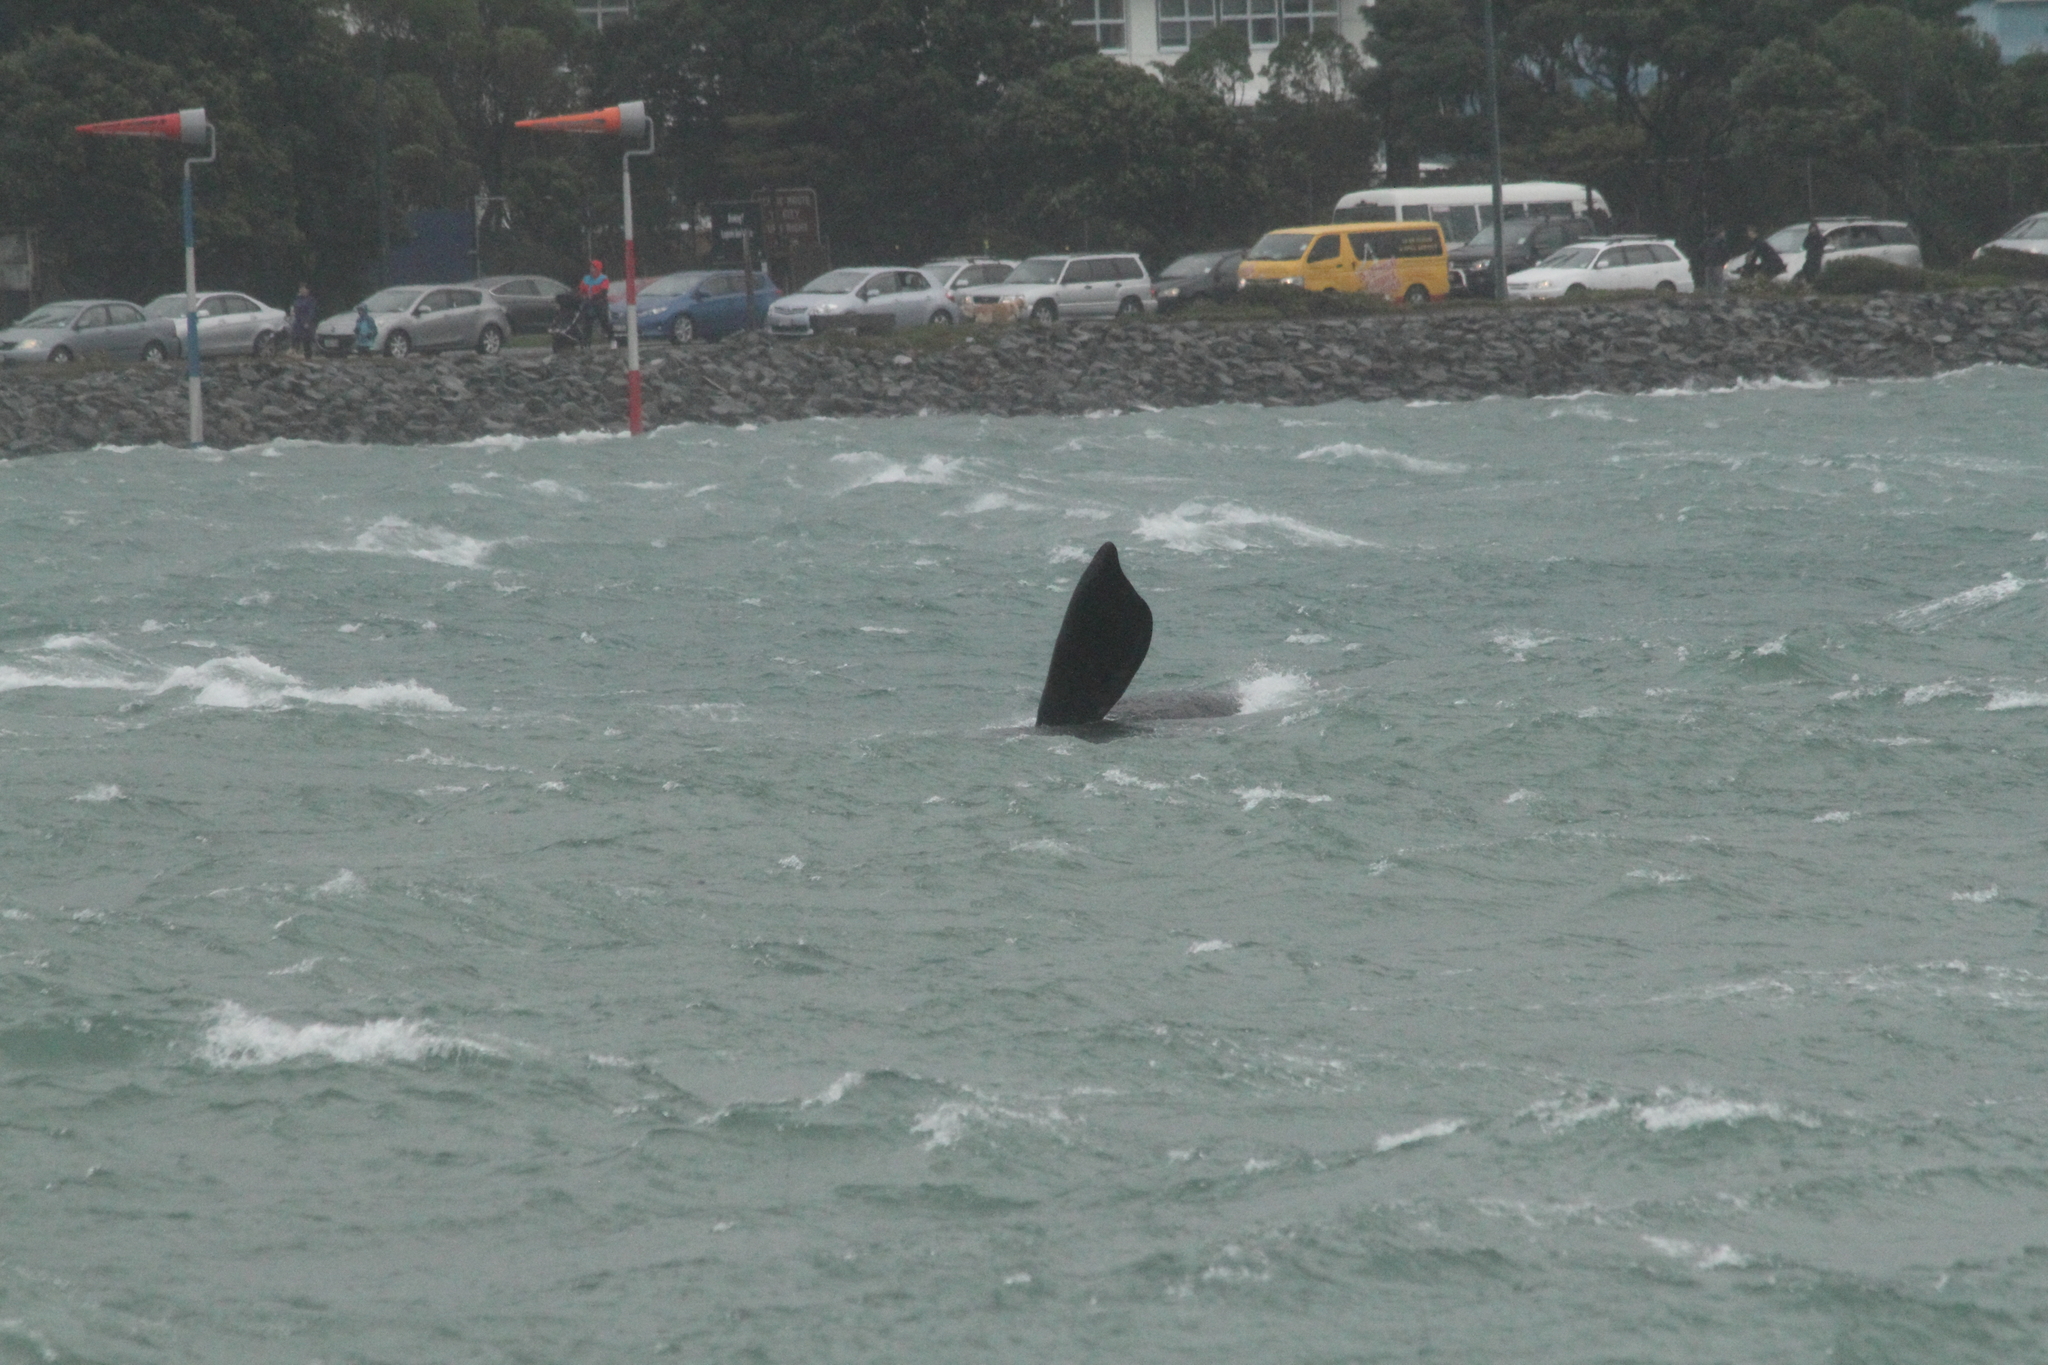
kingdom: Animalia
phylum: Chordata
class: Mammalia
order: Cetacea
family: Balaenidae
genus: Eubalaena
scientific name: Eubalaena australis
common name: Southern right whale
